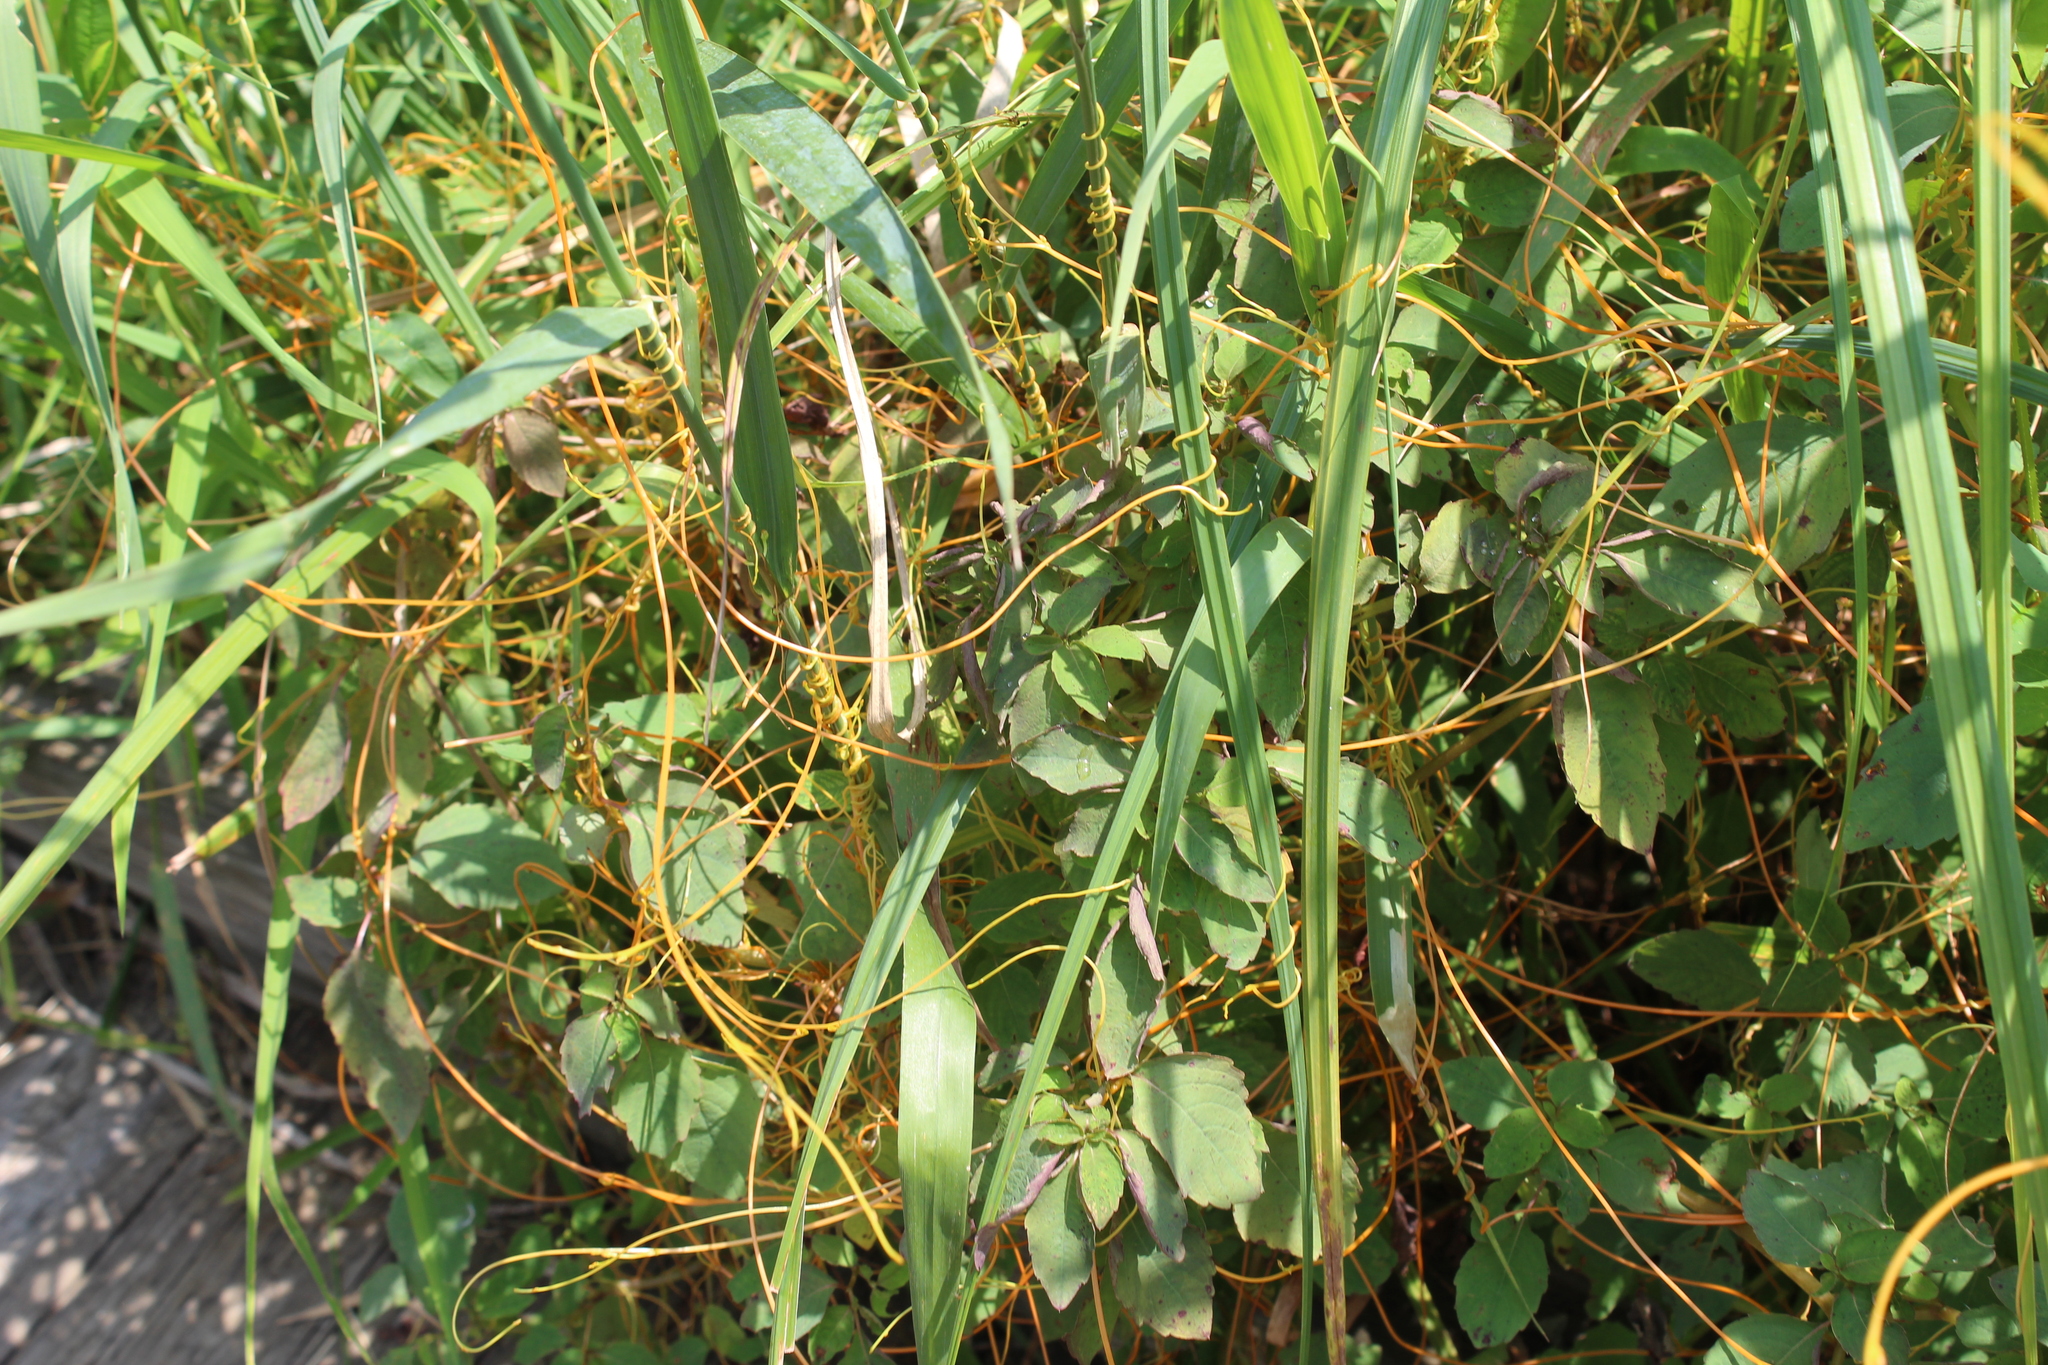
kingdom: Plantae
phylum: Tracheophyta
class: Magnoliopsida
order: Solanales
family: Convolvulaceae
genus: Cuscuta
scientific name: Cuscuta
